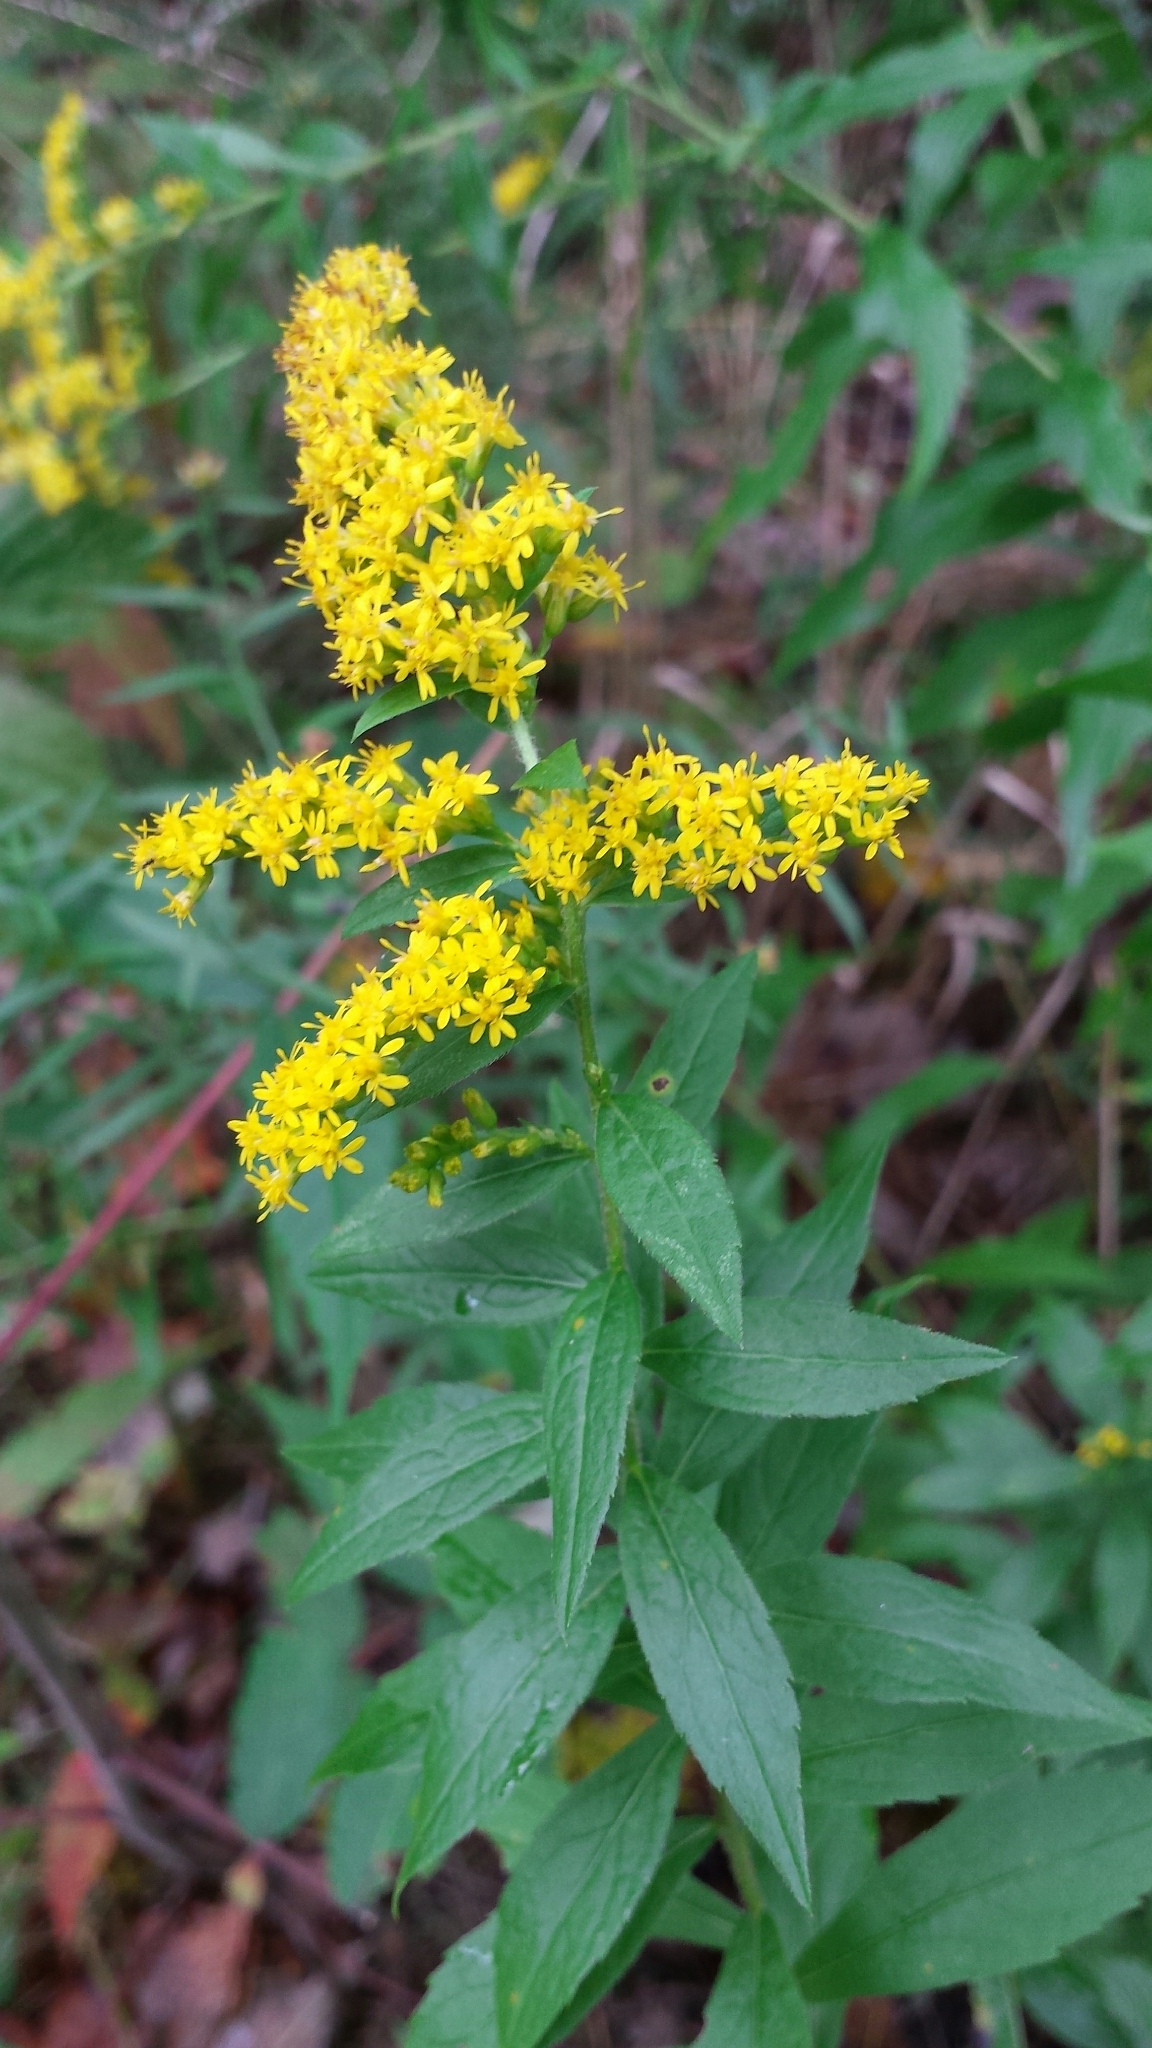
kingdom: Plantae
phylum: Tracheophyta
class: Magnoliopsida
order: Asterales
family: Asteraceae
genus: Solidago
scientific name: Solidago rugosa
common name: Rough-stemmed goldenrod
